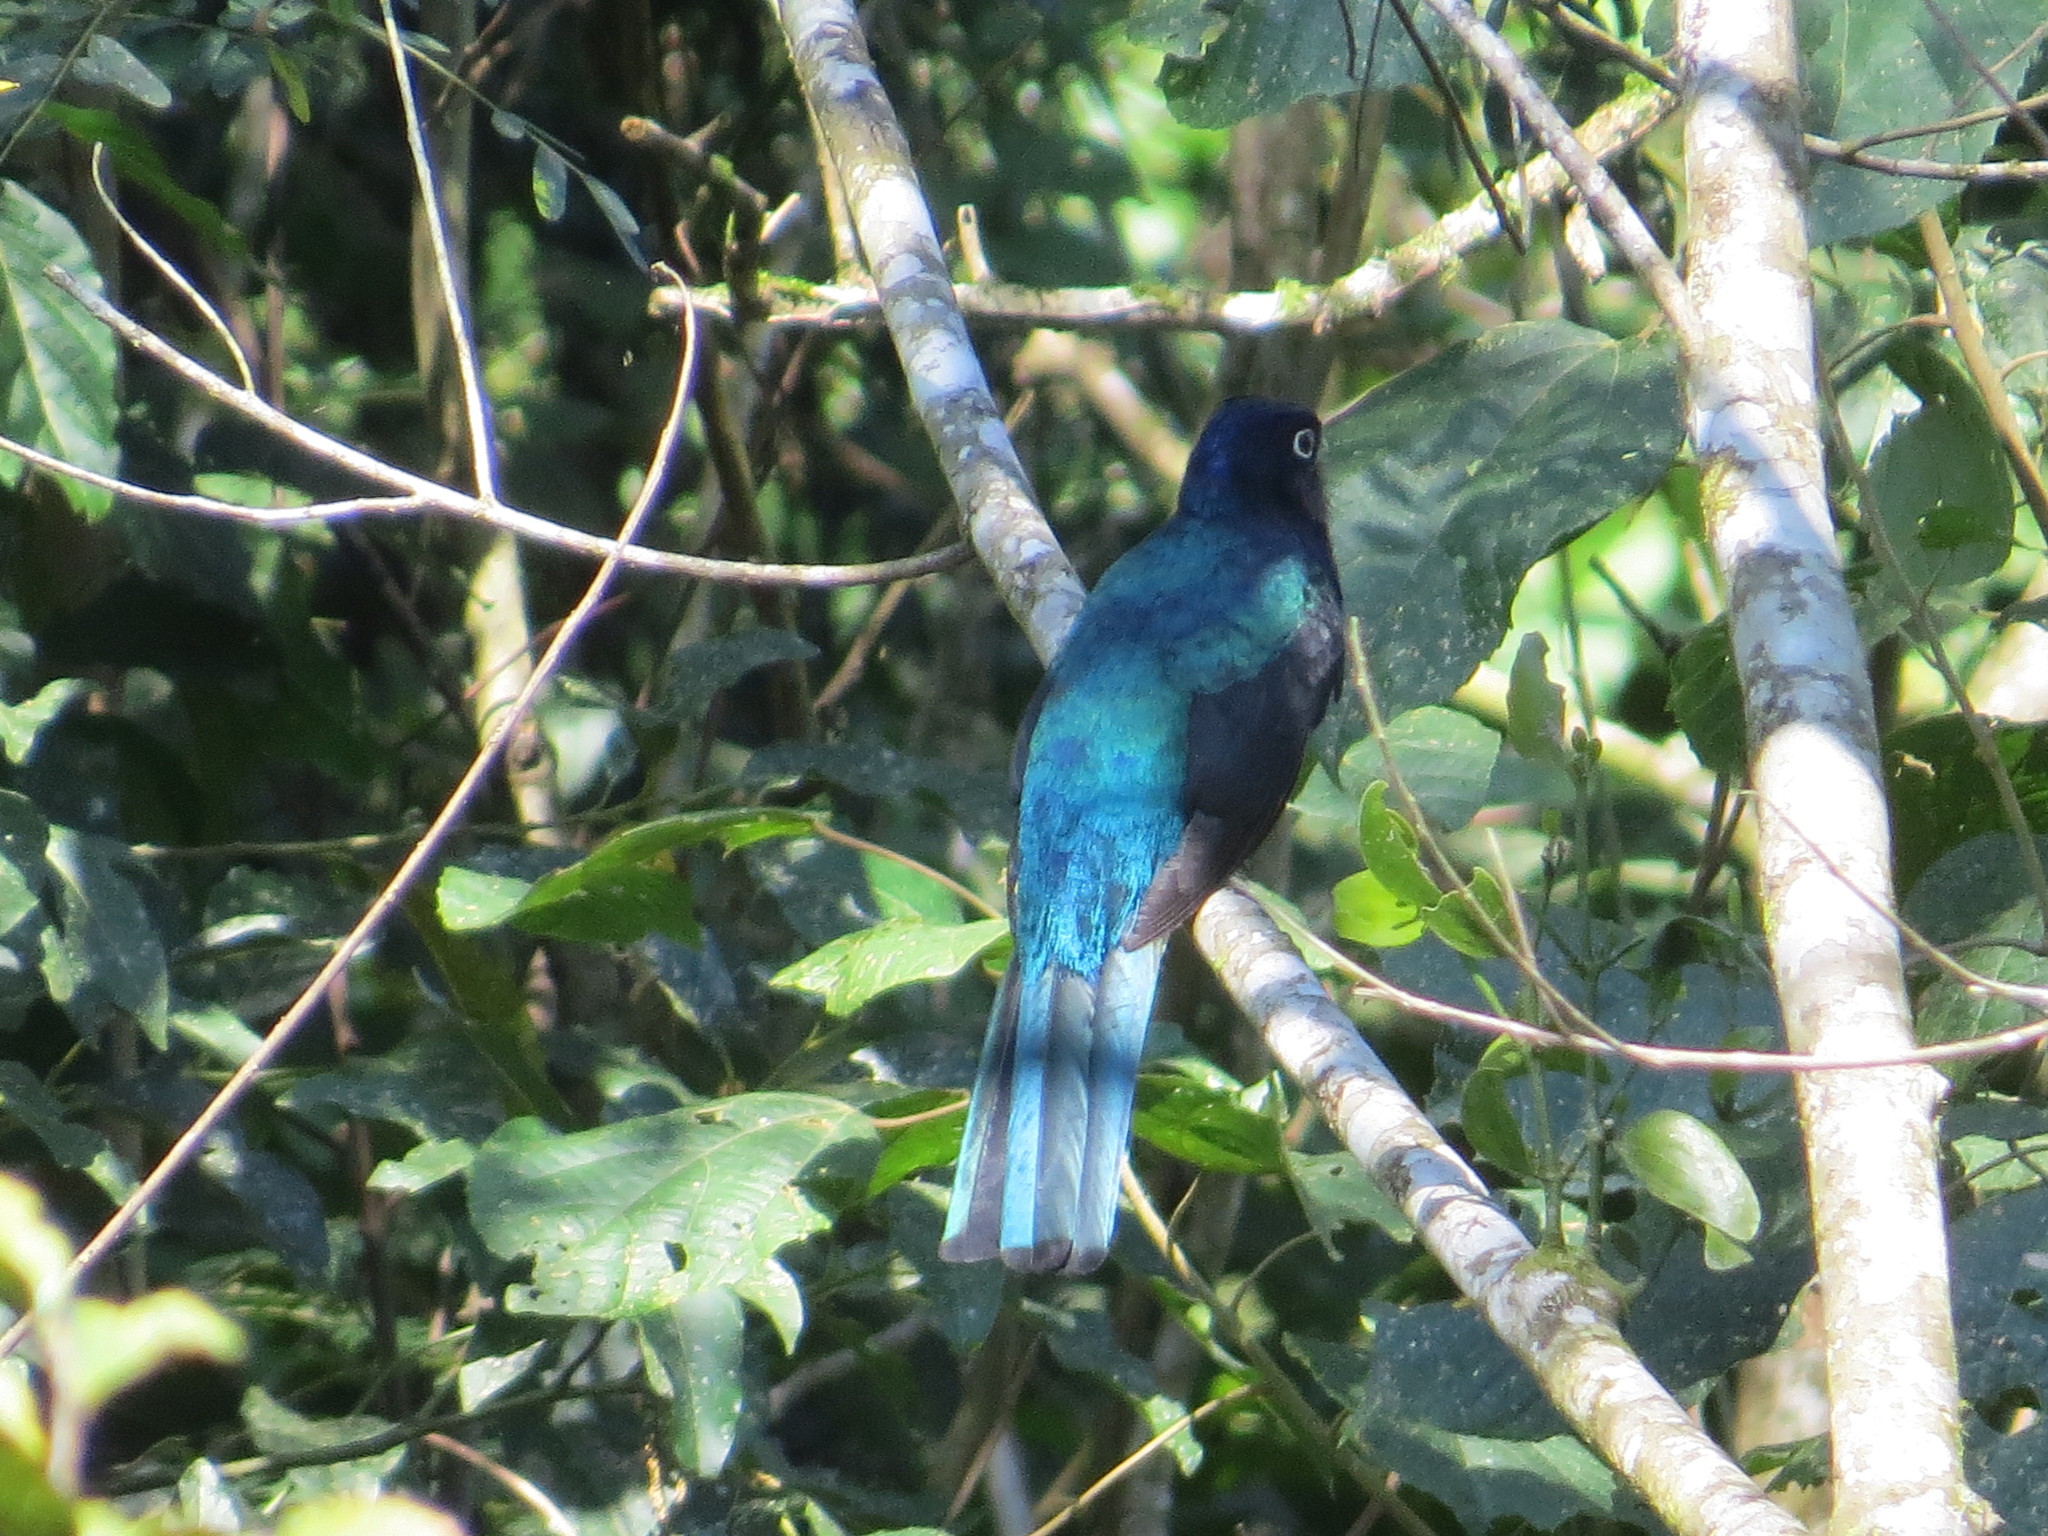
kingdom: Animalia
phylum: Chordata
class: Aves
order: Trogoniformes
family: Trogonidae
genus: Trogon
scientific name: Trogon viridis
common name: Green-backed trogon
